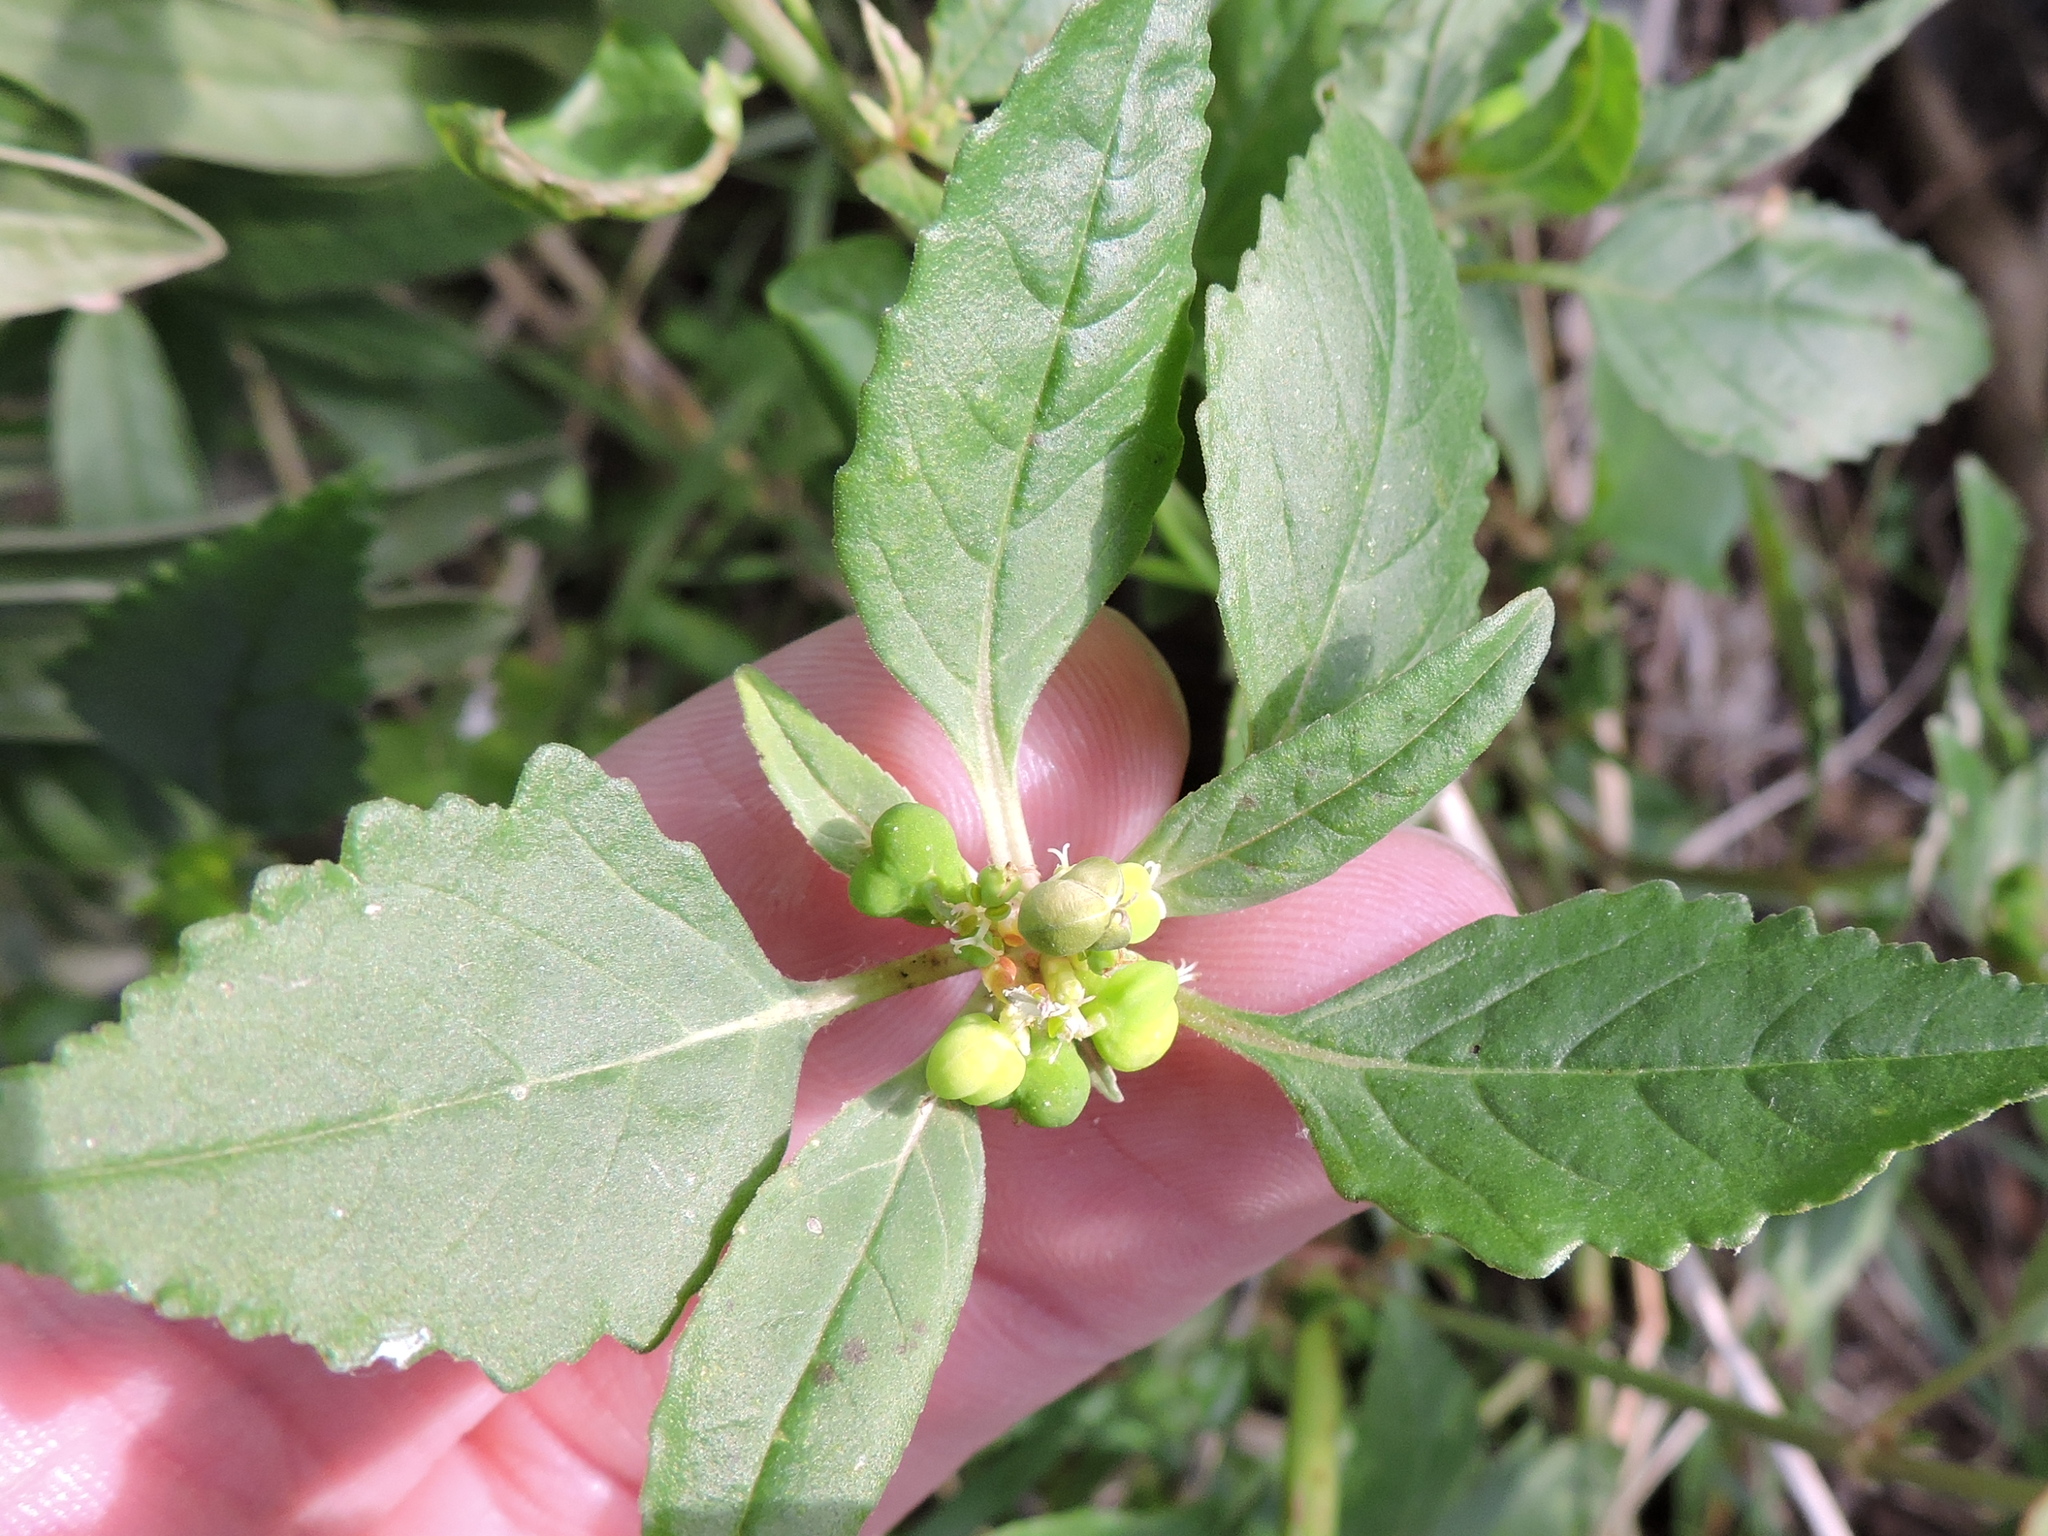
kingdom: Plantae
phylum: Tracheophyta
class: Magnoliopsida
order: Malpighiales
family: Euphorbiaceae
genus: Euphorbia
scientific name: Euphorbia dentata
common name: Dentate spurge
